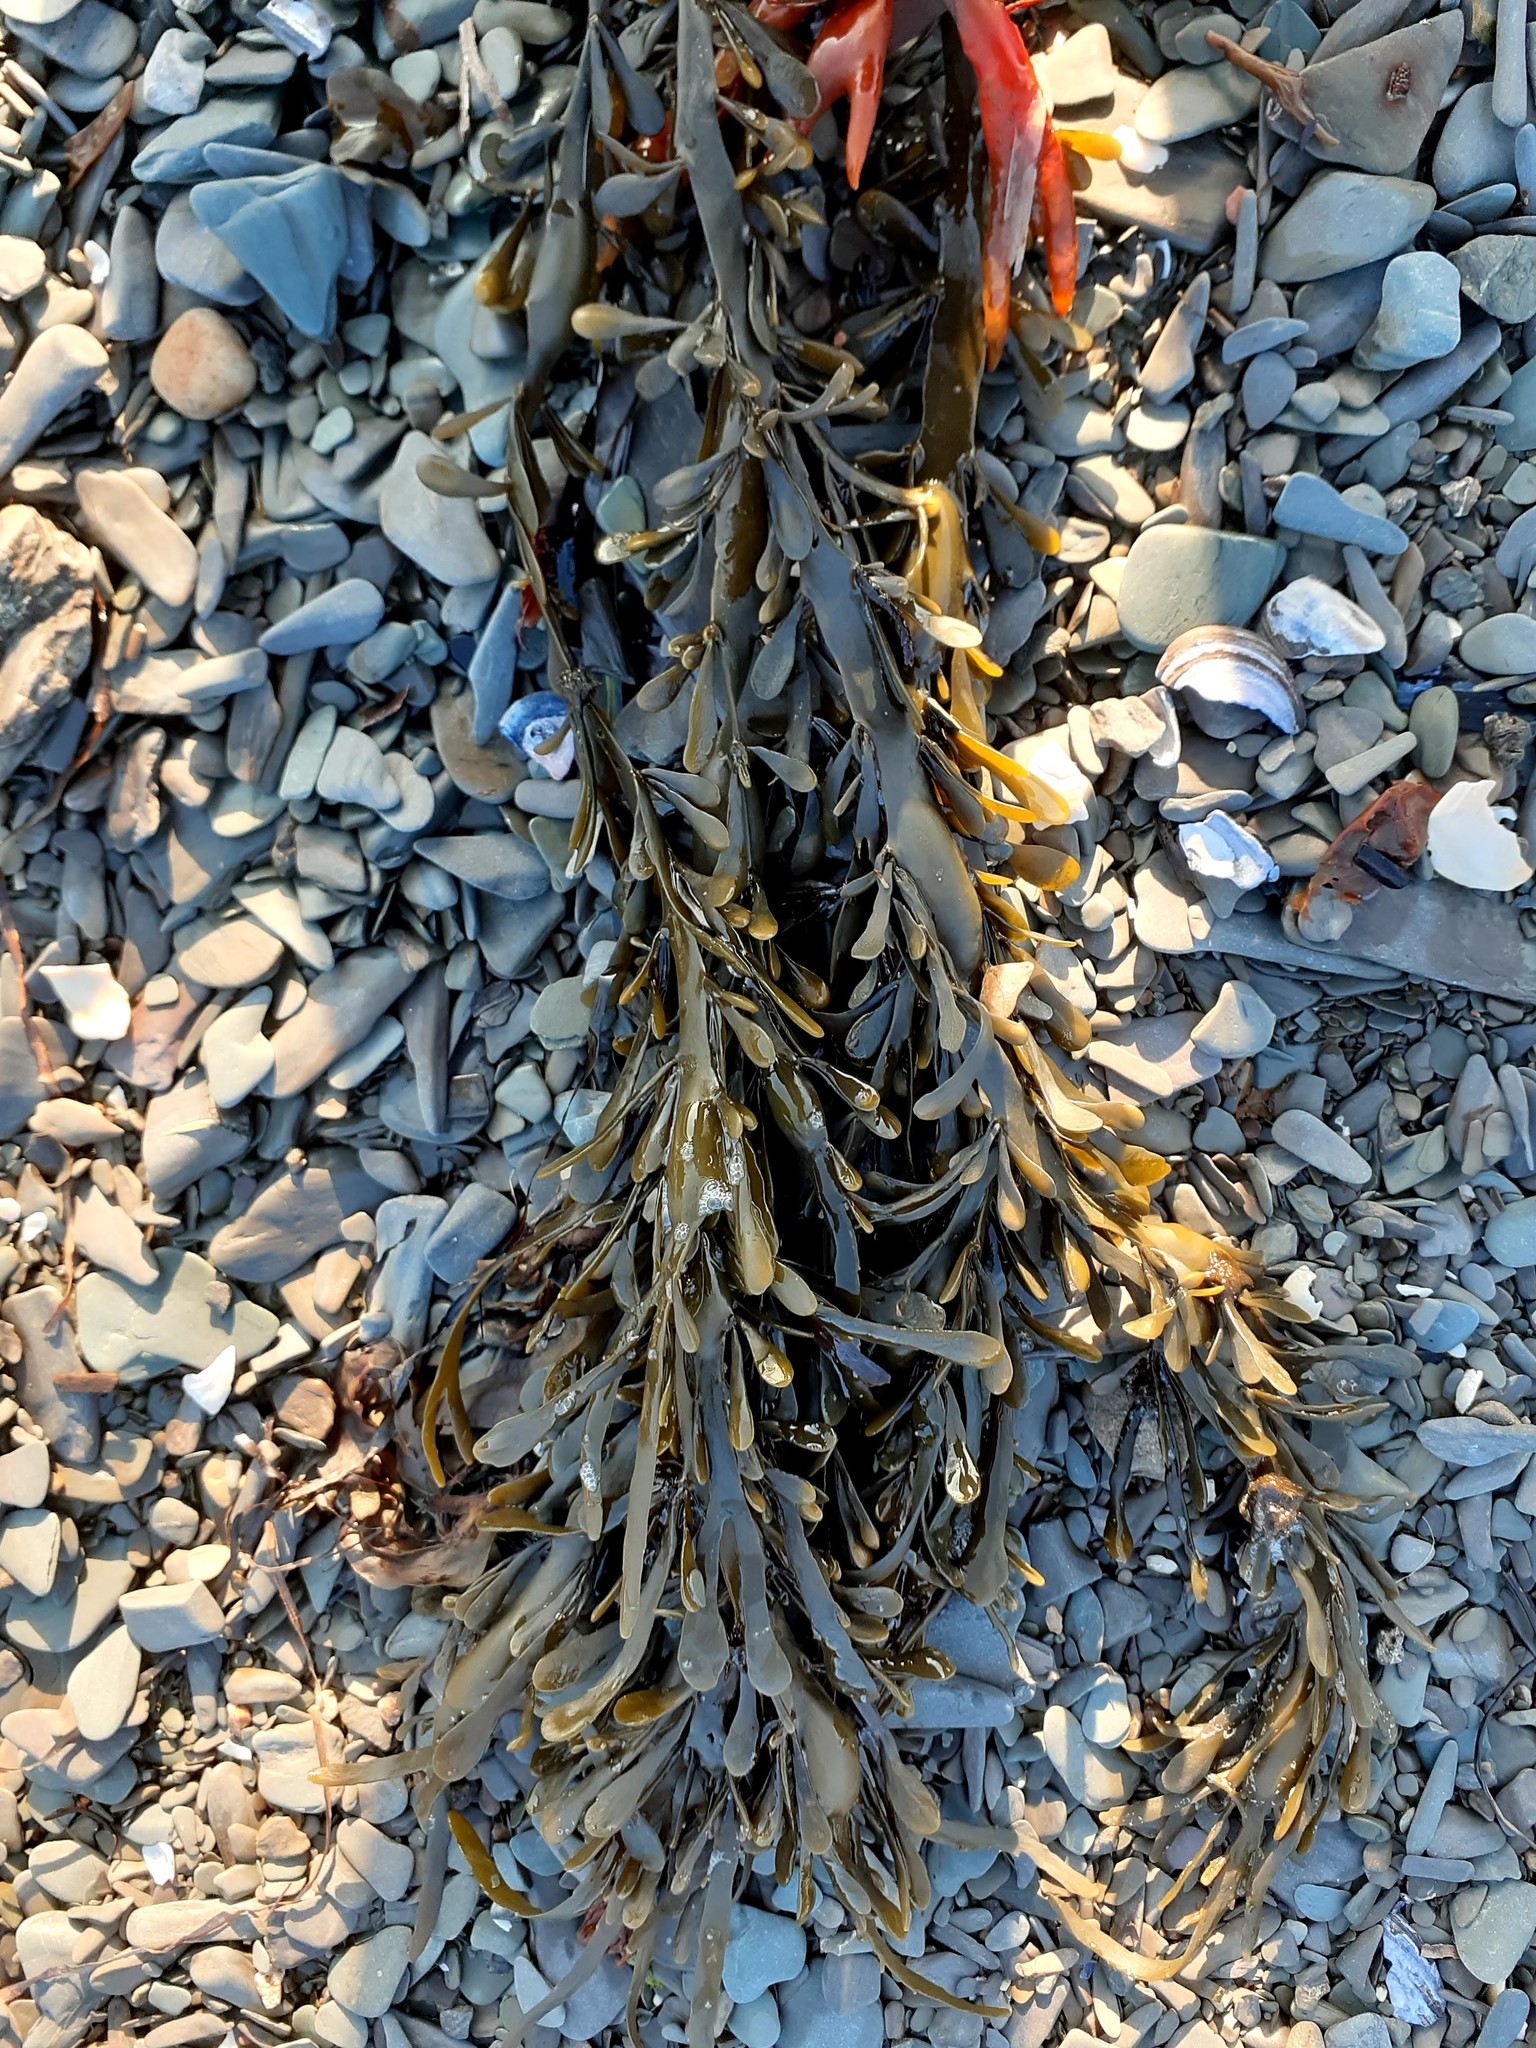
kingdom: Chromista
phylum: Ochrophyta
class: Phaeophyceae
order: Fucales
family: Fucaceae
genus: Ascophyllum
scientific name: Ascophyllum nodosum
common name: Knotted wrack
